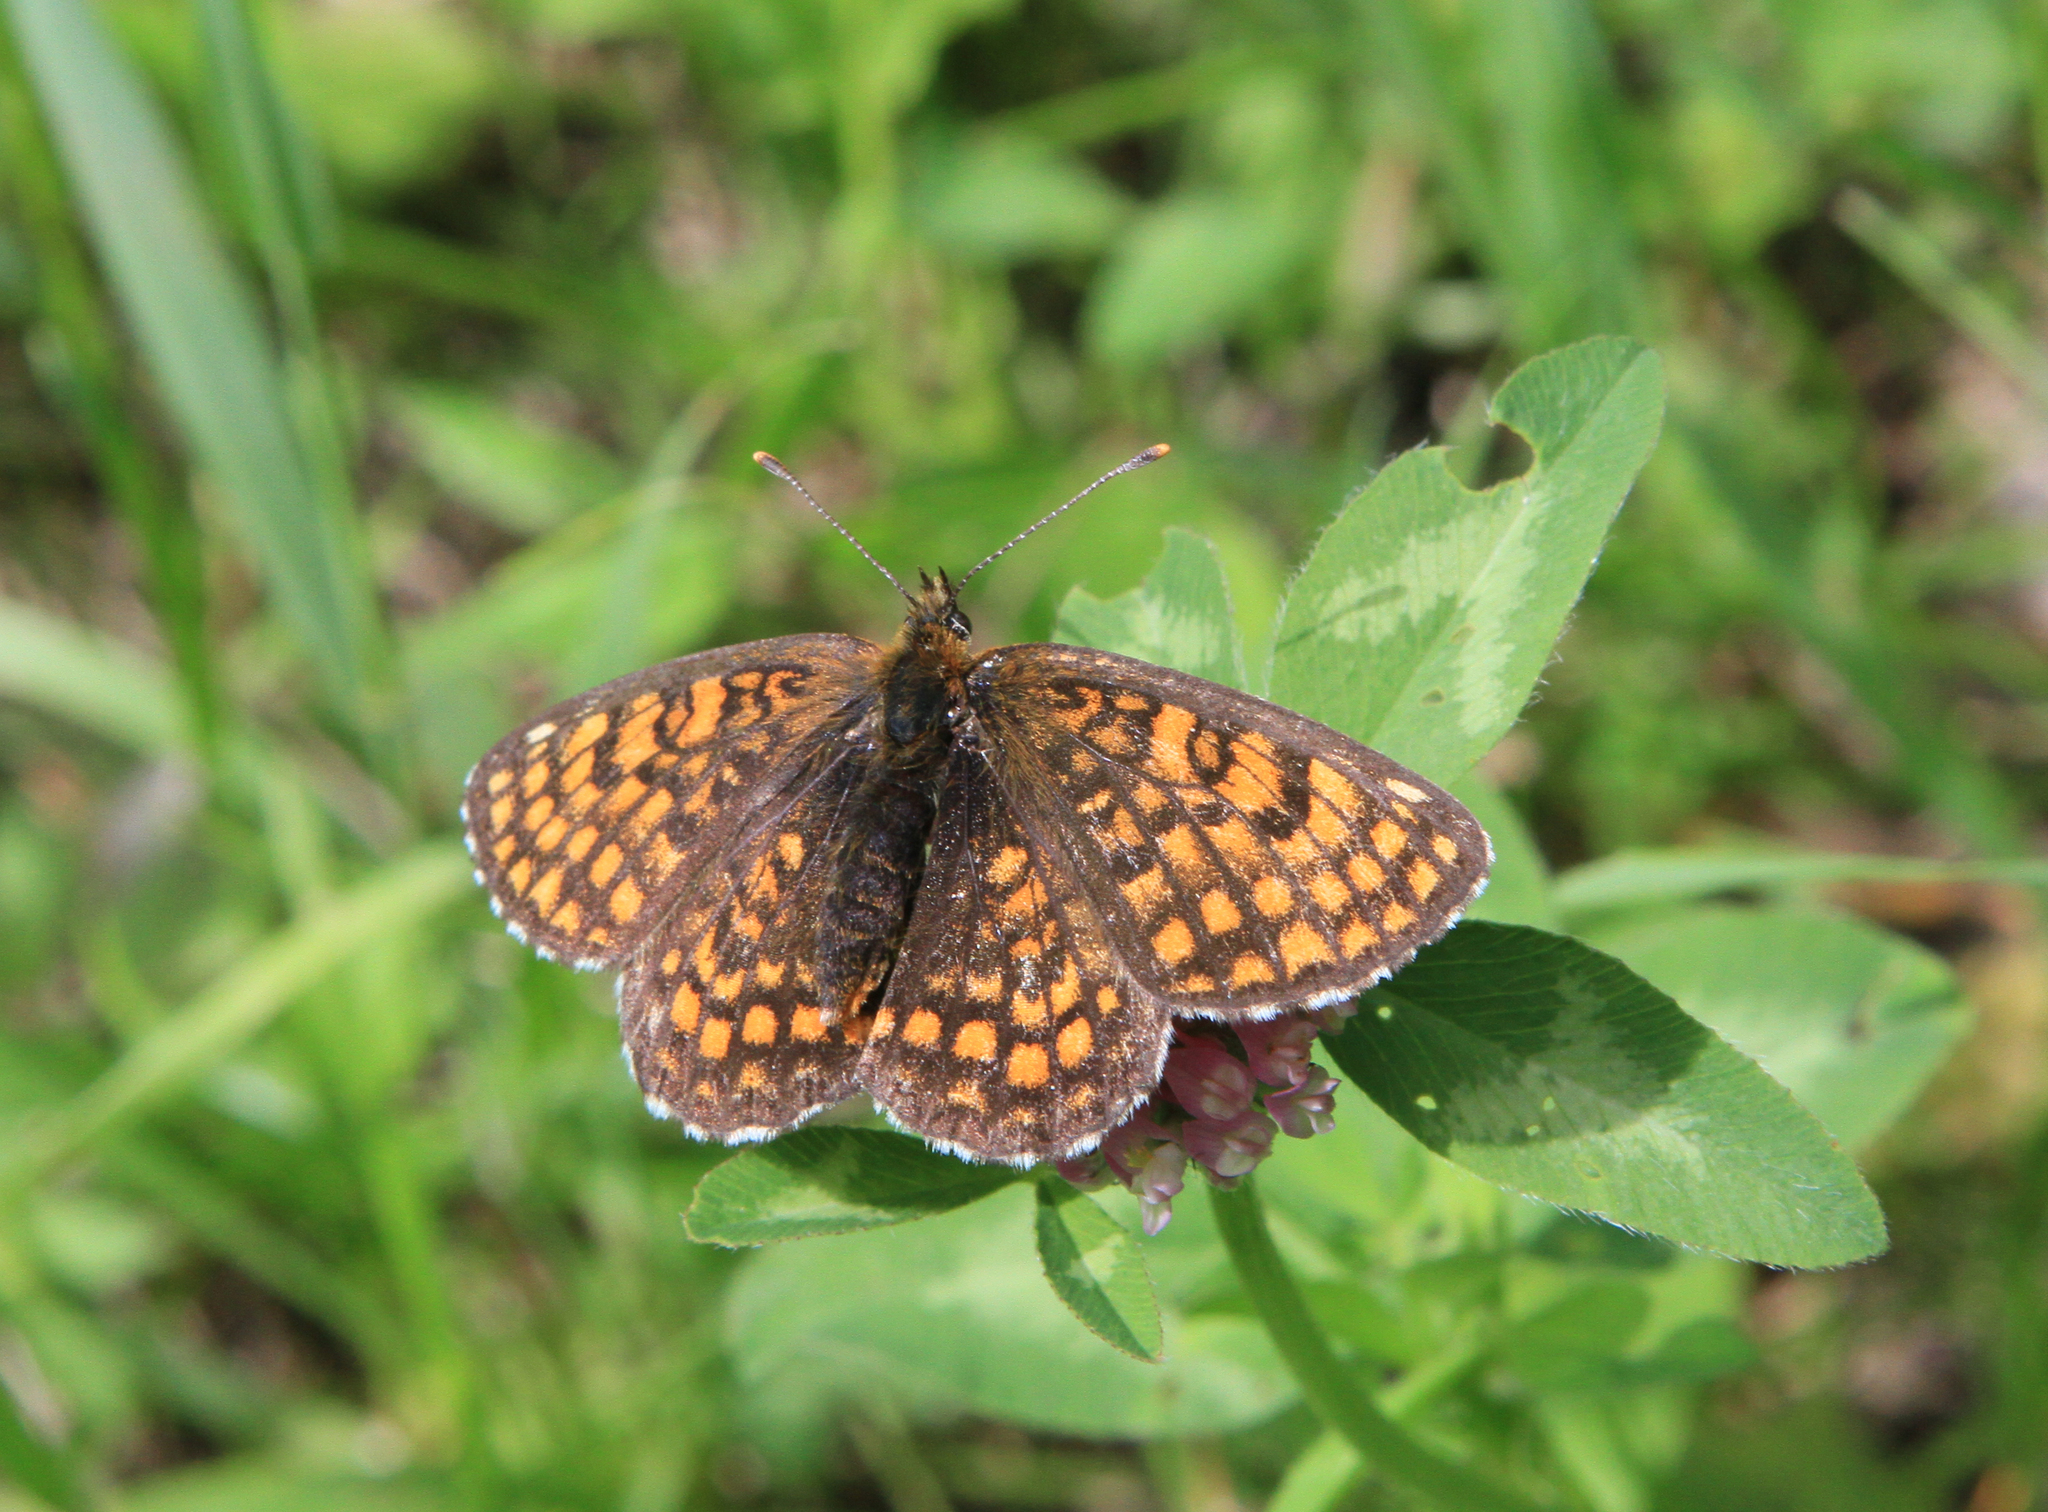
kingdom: Animalia
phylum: Arthropoda
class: Insecta
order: Lepidoptera
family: Nymphalidae
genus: Melitaea
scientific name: Melitaea
